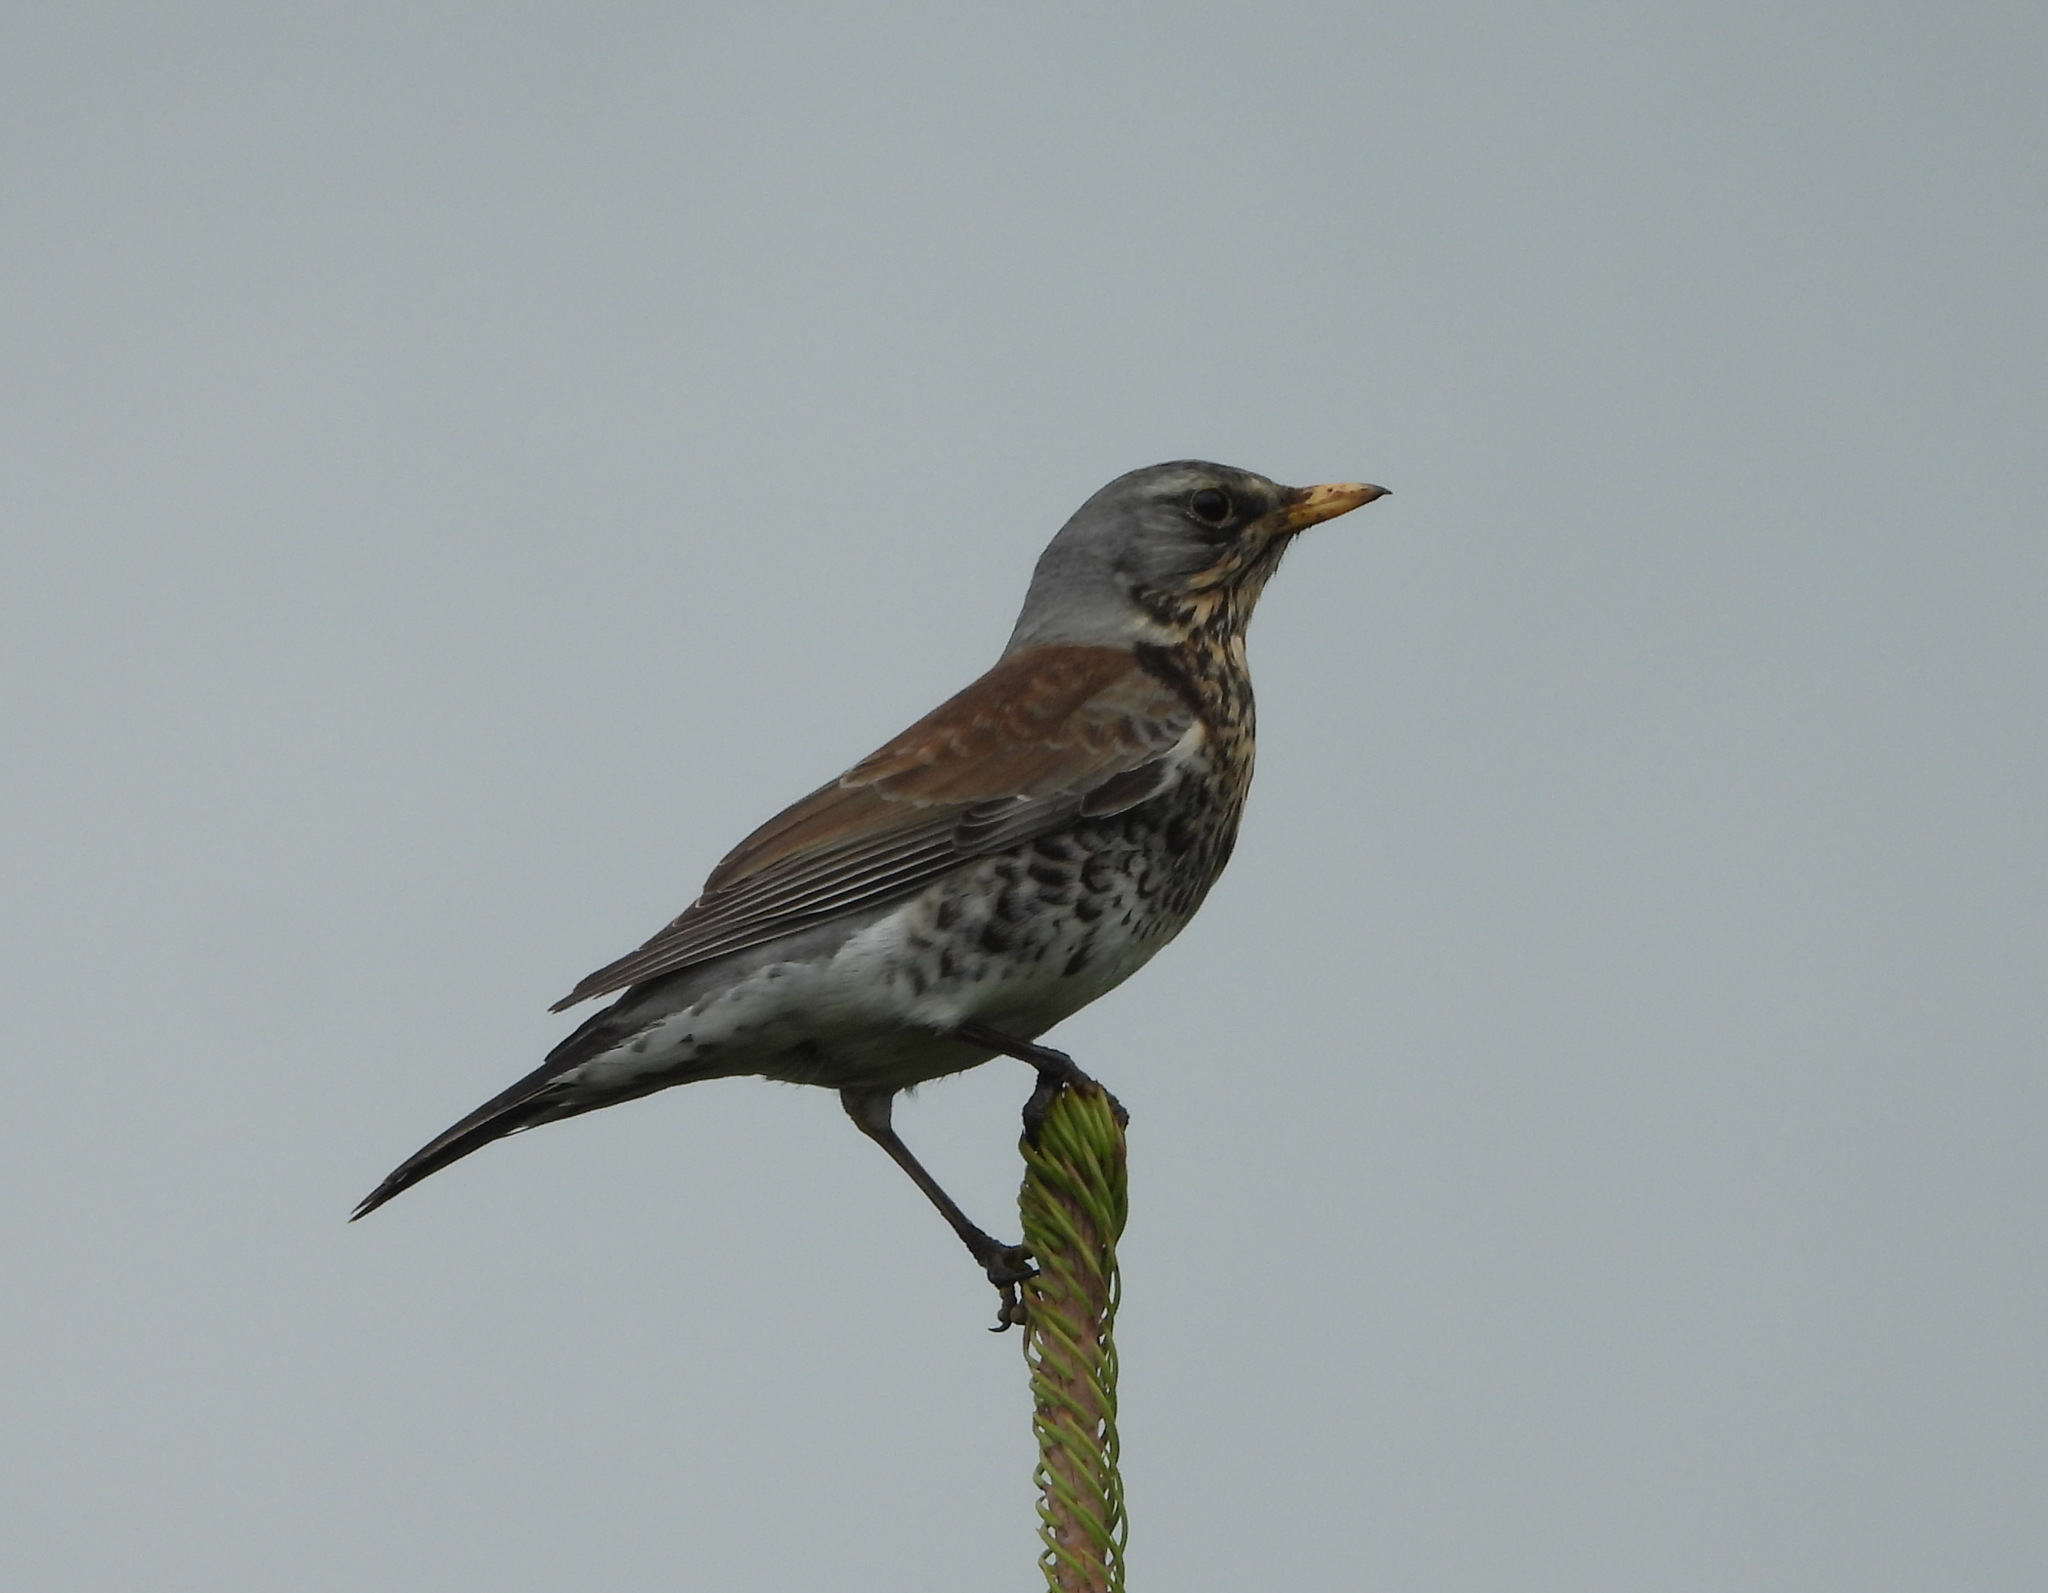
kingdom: Animalia
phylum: Chordata
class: Aves
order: Passeriformes
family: Turdidae
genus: Turdus
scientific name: Turdus pilaris
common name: Fieldfare
